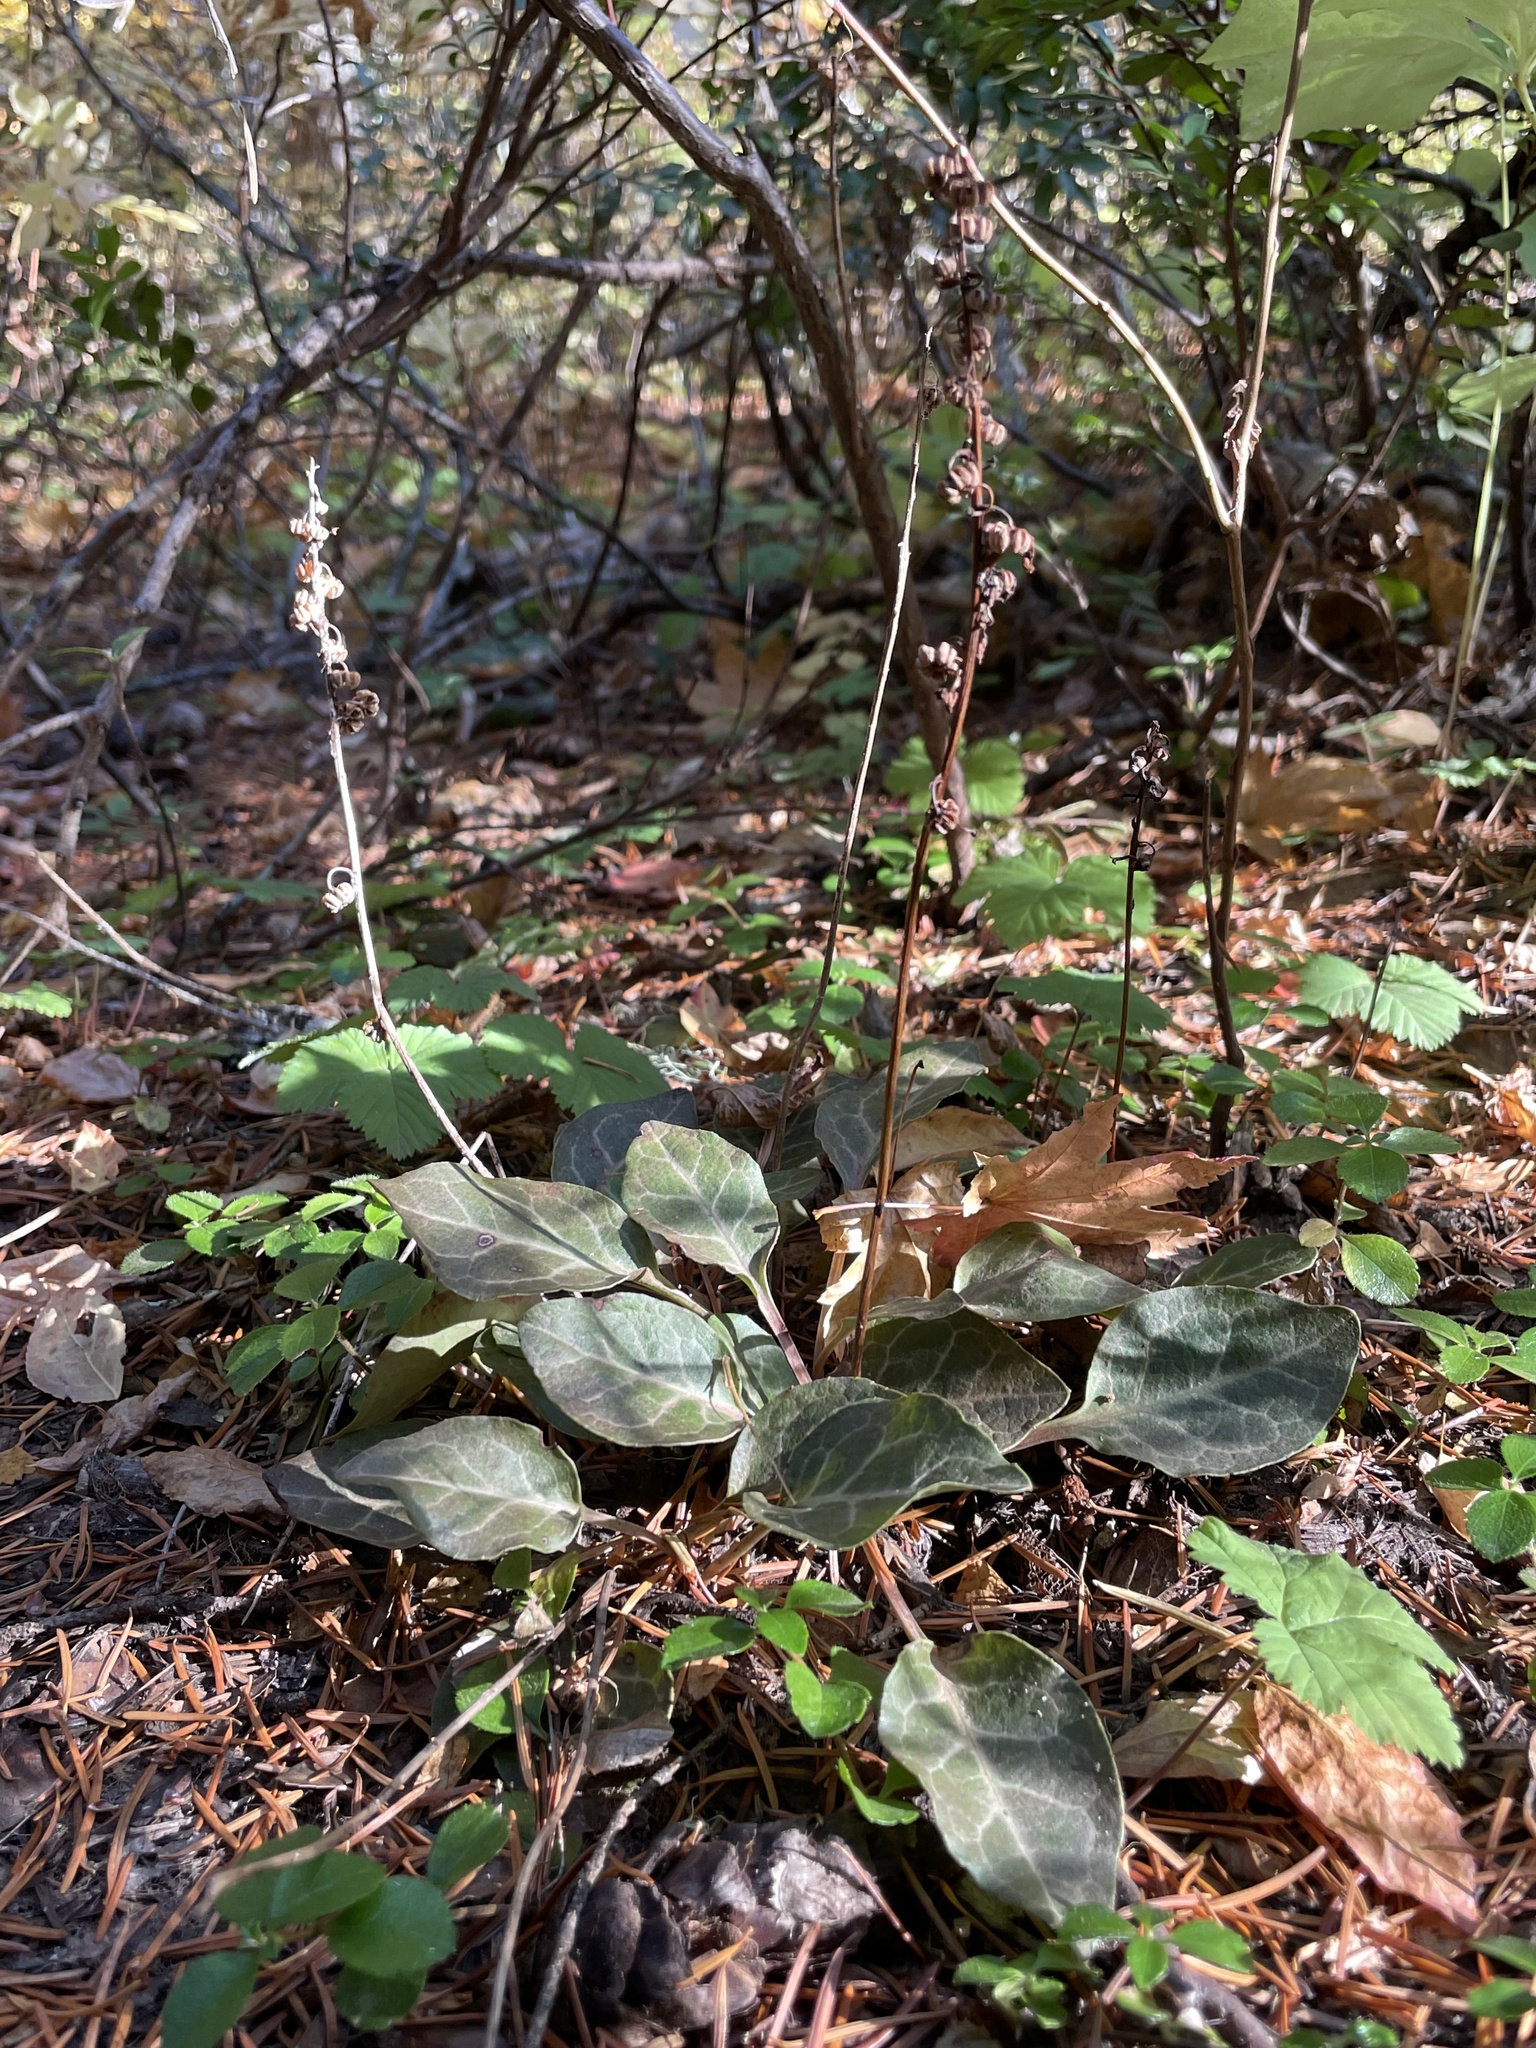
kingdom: Plantae
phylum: Tracheophyta
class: Magnoliopsida
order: Ericales
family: Ericaceae
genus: Pyrola
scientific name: Pyrola picta
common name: White-vein wintergreen
